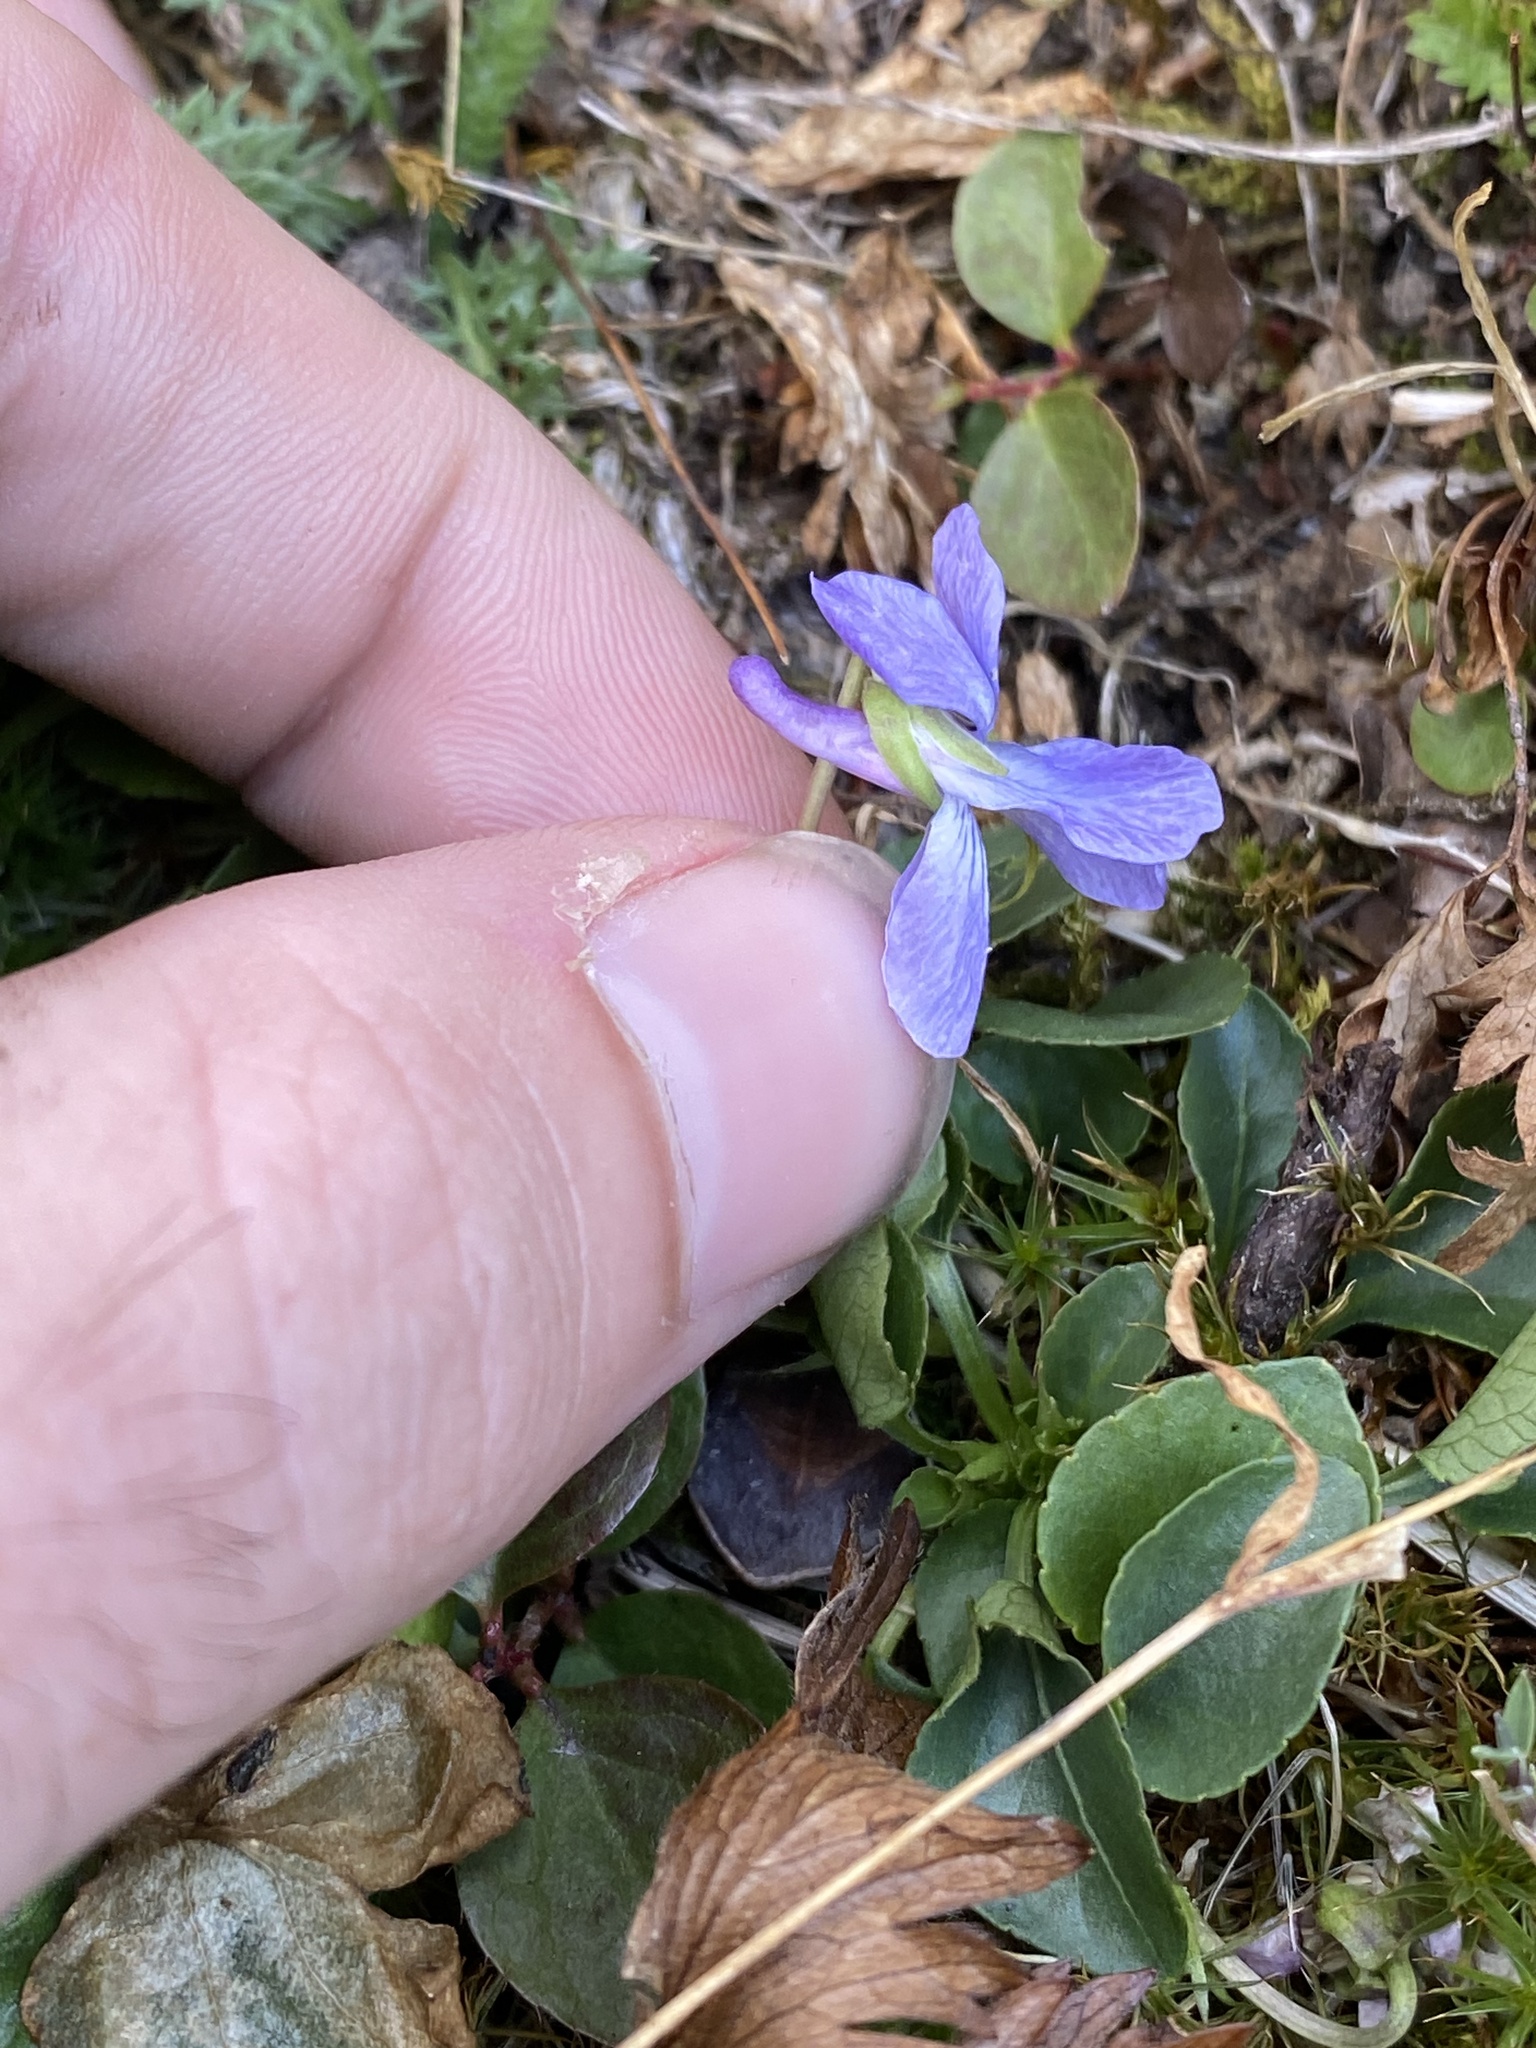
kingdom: Plantae
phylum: Tracheophyta
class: Magnoliopsida
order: Malpighiales
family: Violaceae
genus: Viola
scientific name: Viola adunca
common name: Sand violet
